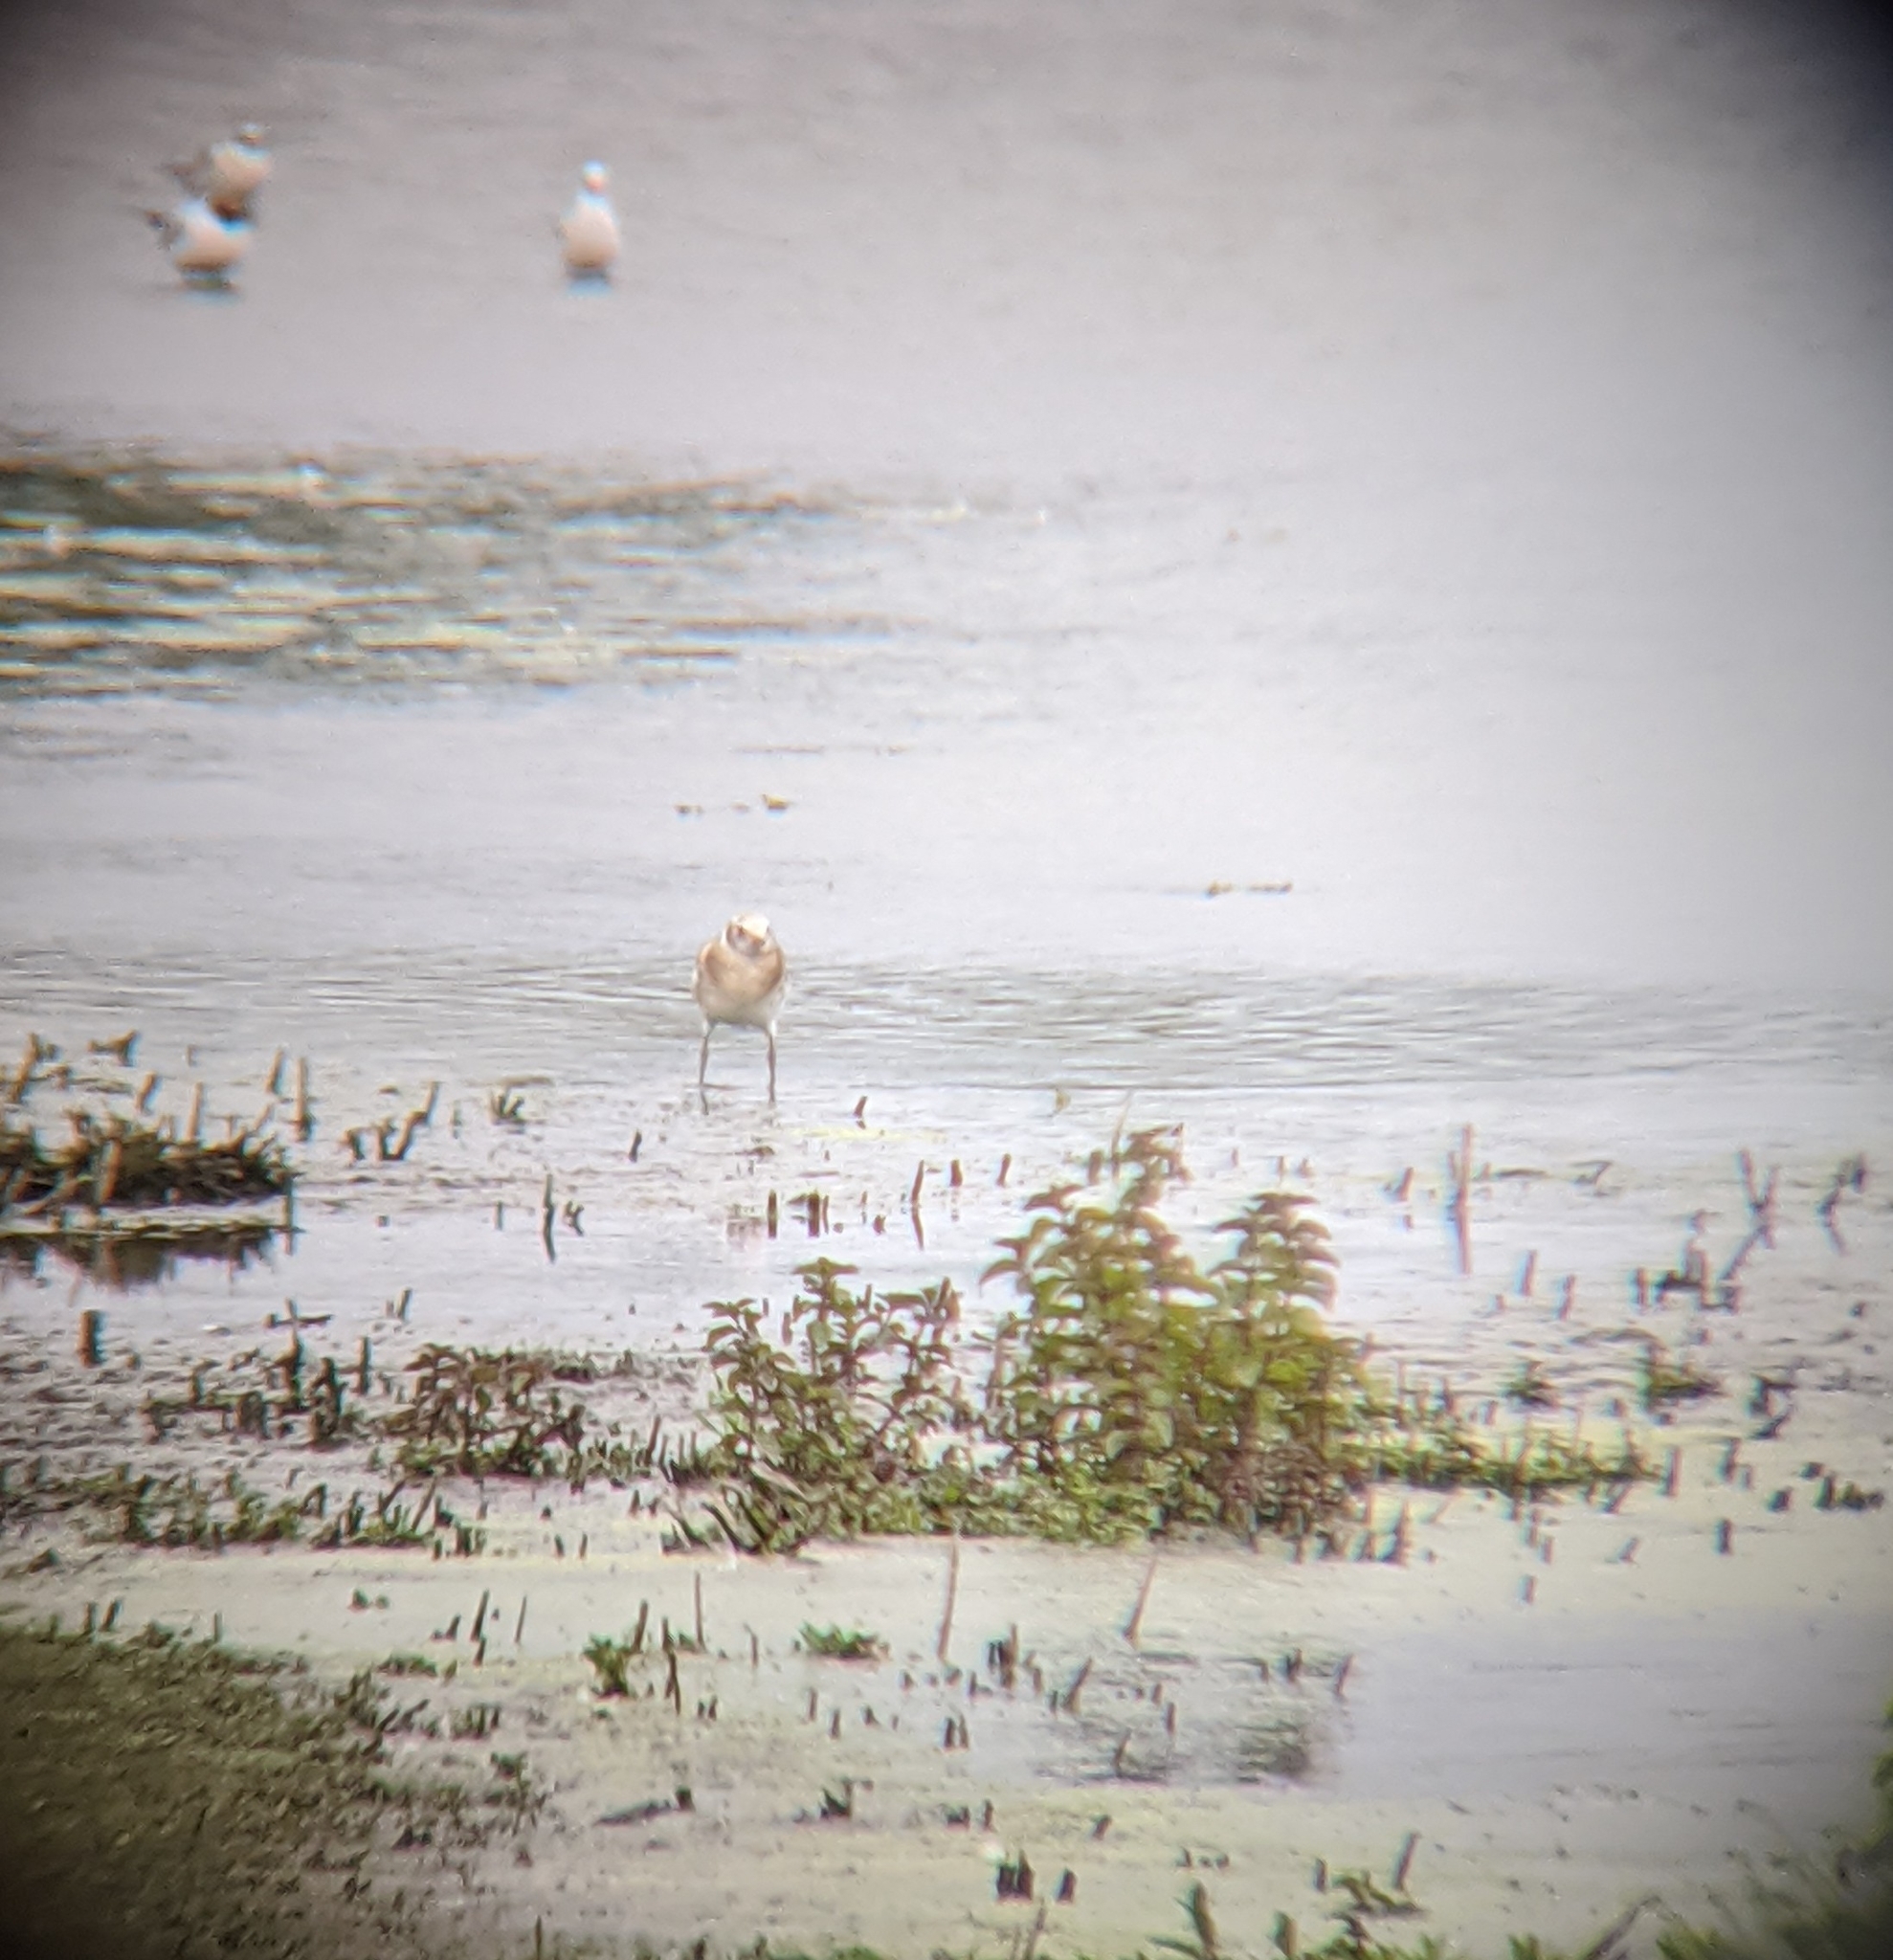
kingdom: Animalia
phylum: Chordata
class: Aves
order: Charadriiformes
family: Laridae
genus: Chroicocephalus
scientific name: Chroicocephalus ridibundus
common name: Black-headed gull
